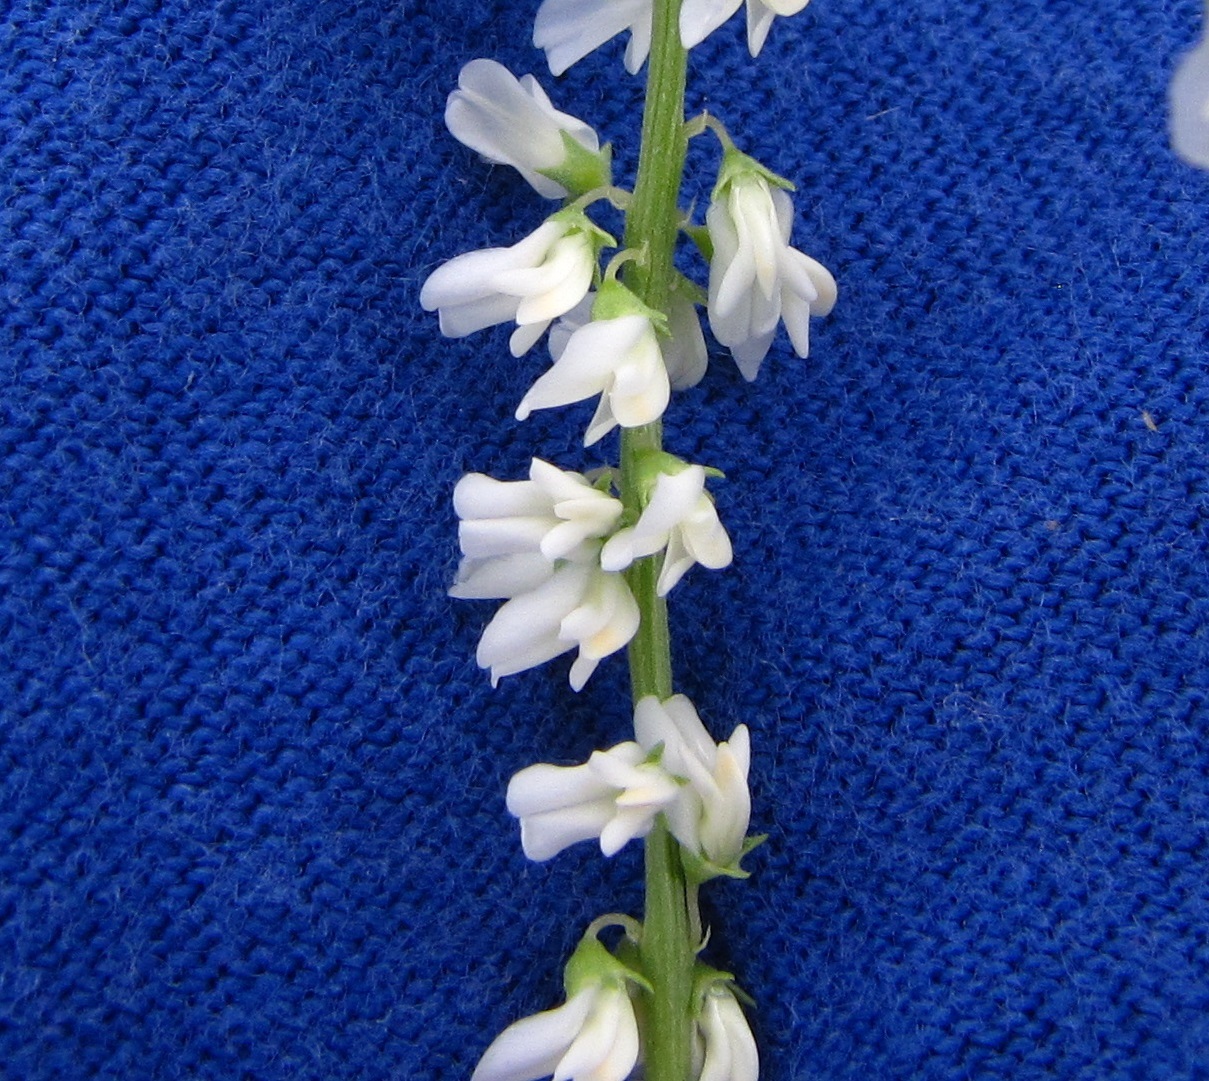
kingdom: Plantae
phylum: Tracheophyta
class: Magnoliopsida
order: Fabales
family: Fabaceae
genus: Melilotus
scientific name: Melilotus albus
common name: White melilot
